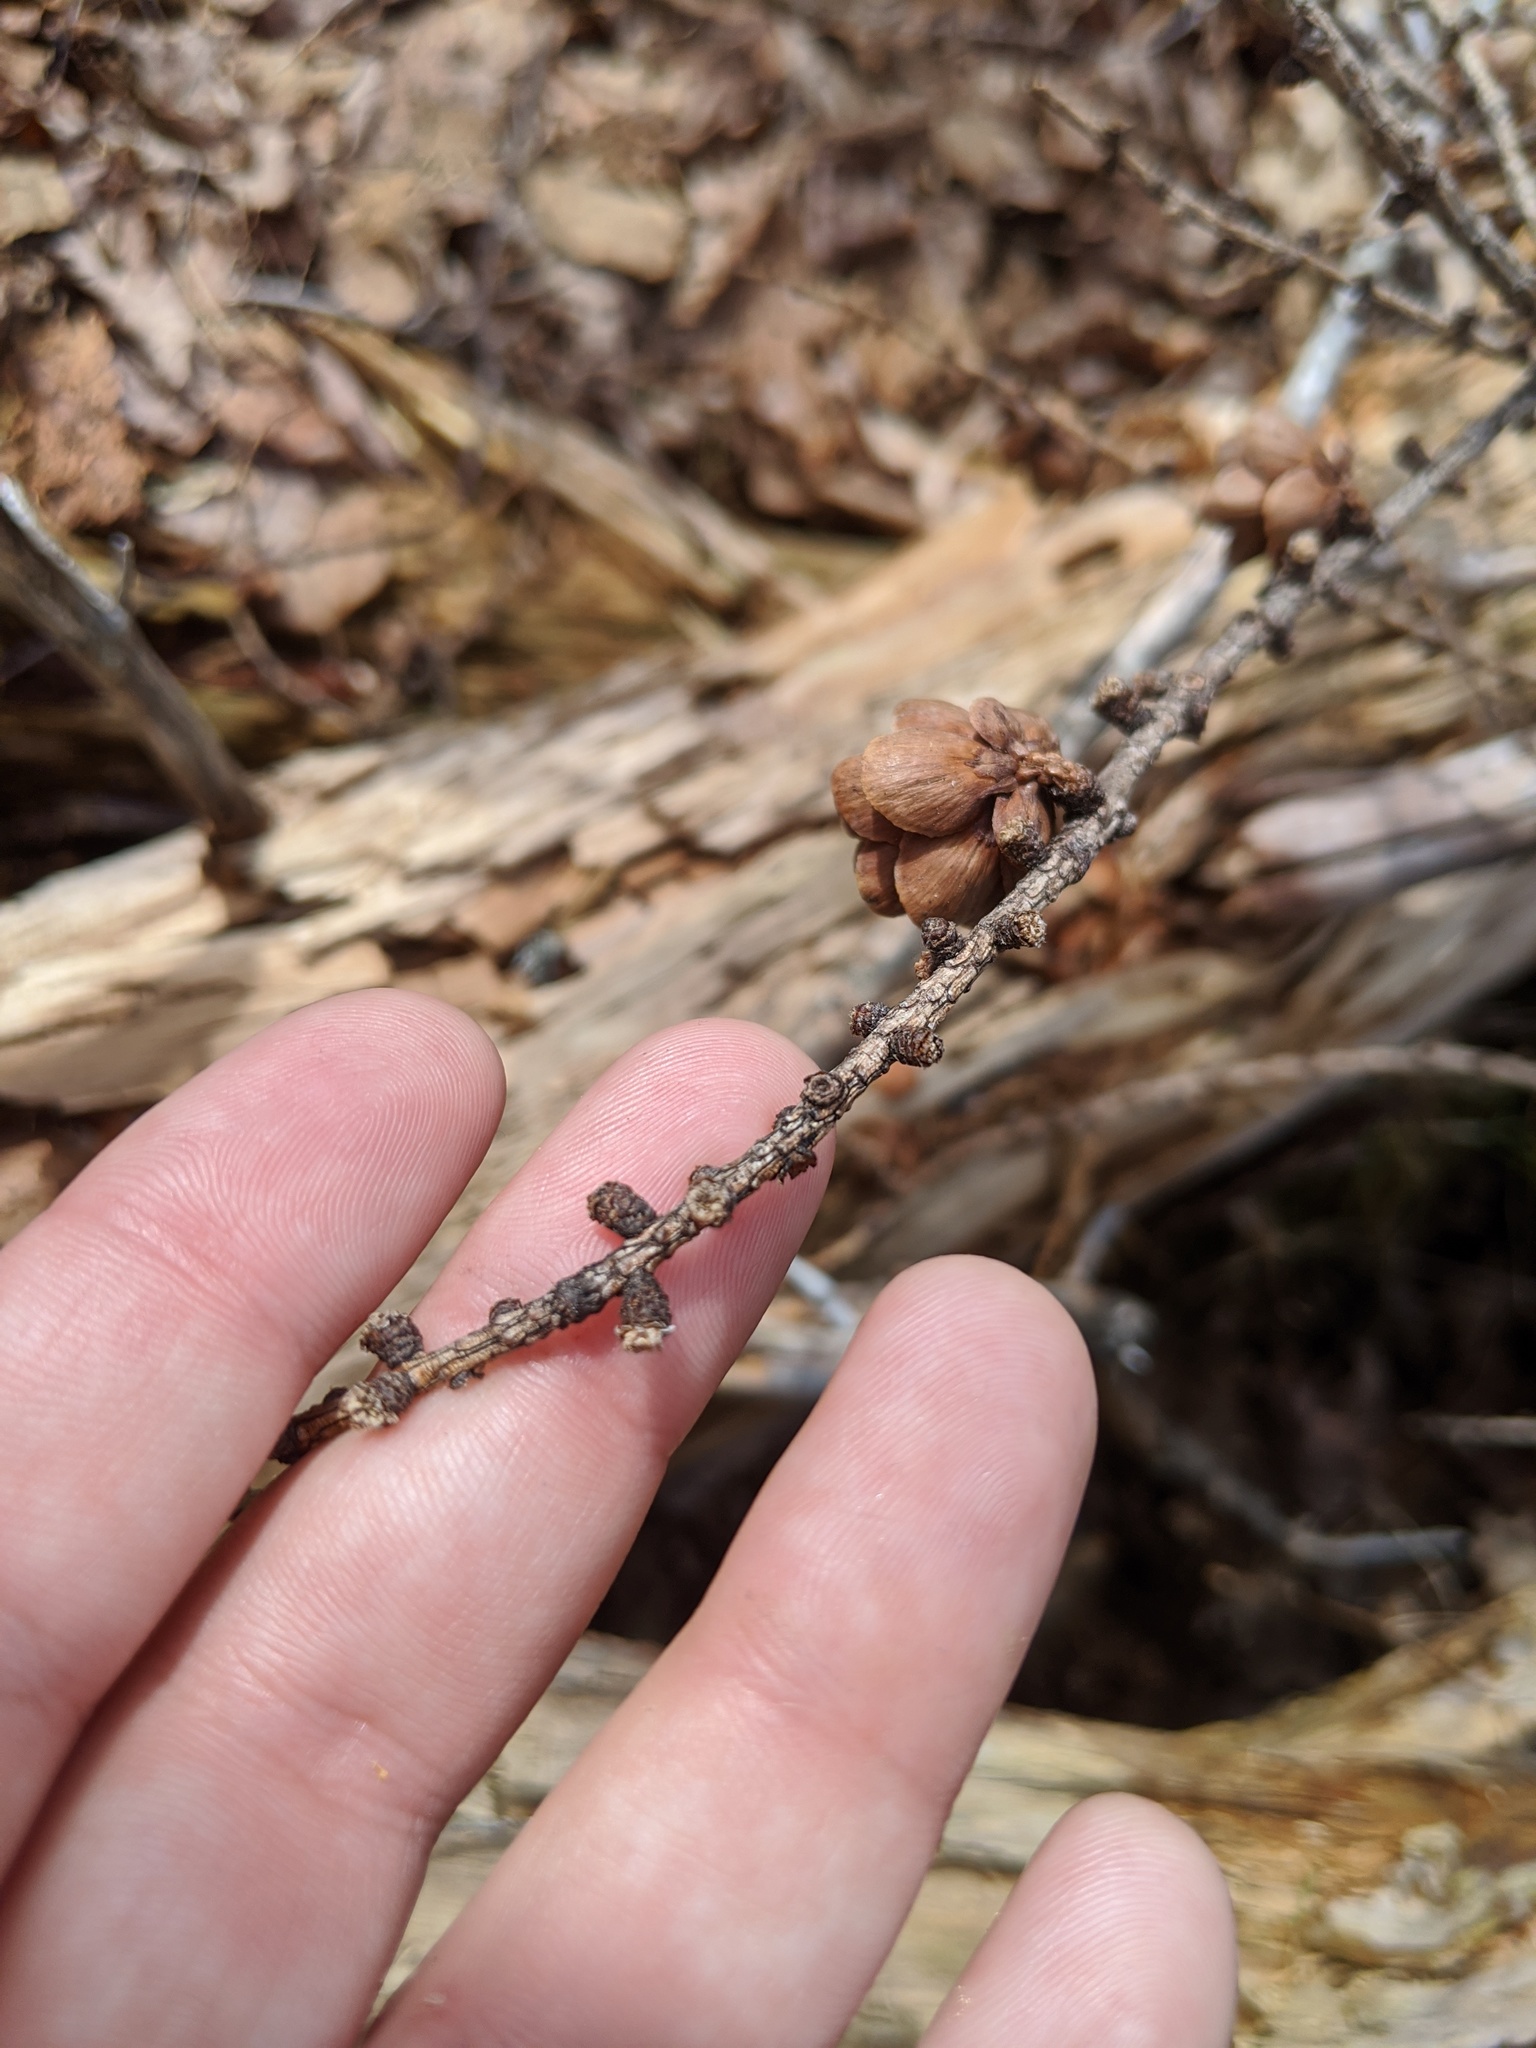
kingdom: Plantae
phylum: Tracheophyta
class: Pinopsida
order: Pinales
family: Pinaceae
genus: Larix
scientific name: Larix laricina
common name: American larch
